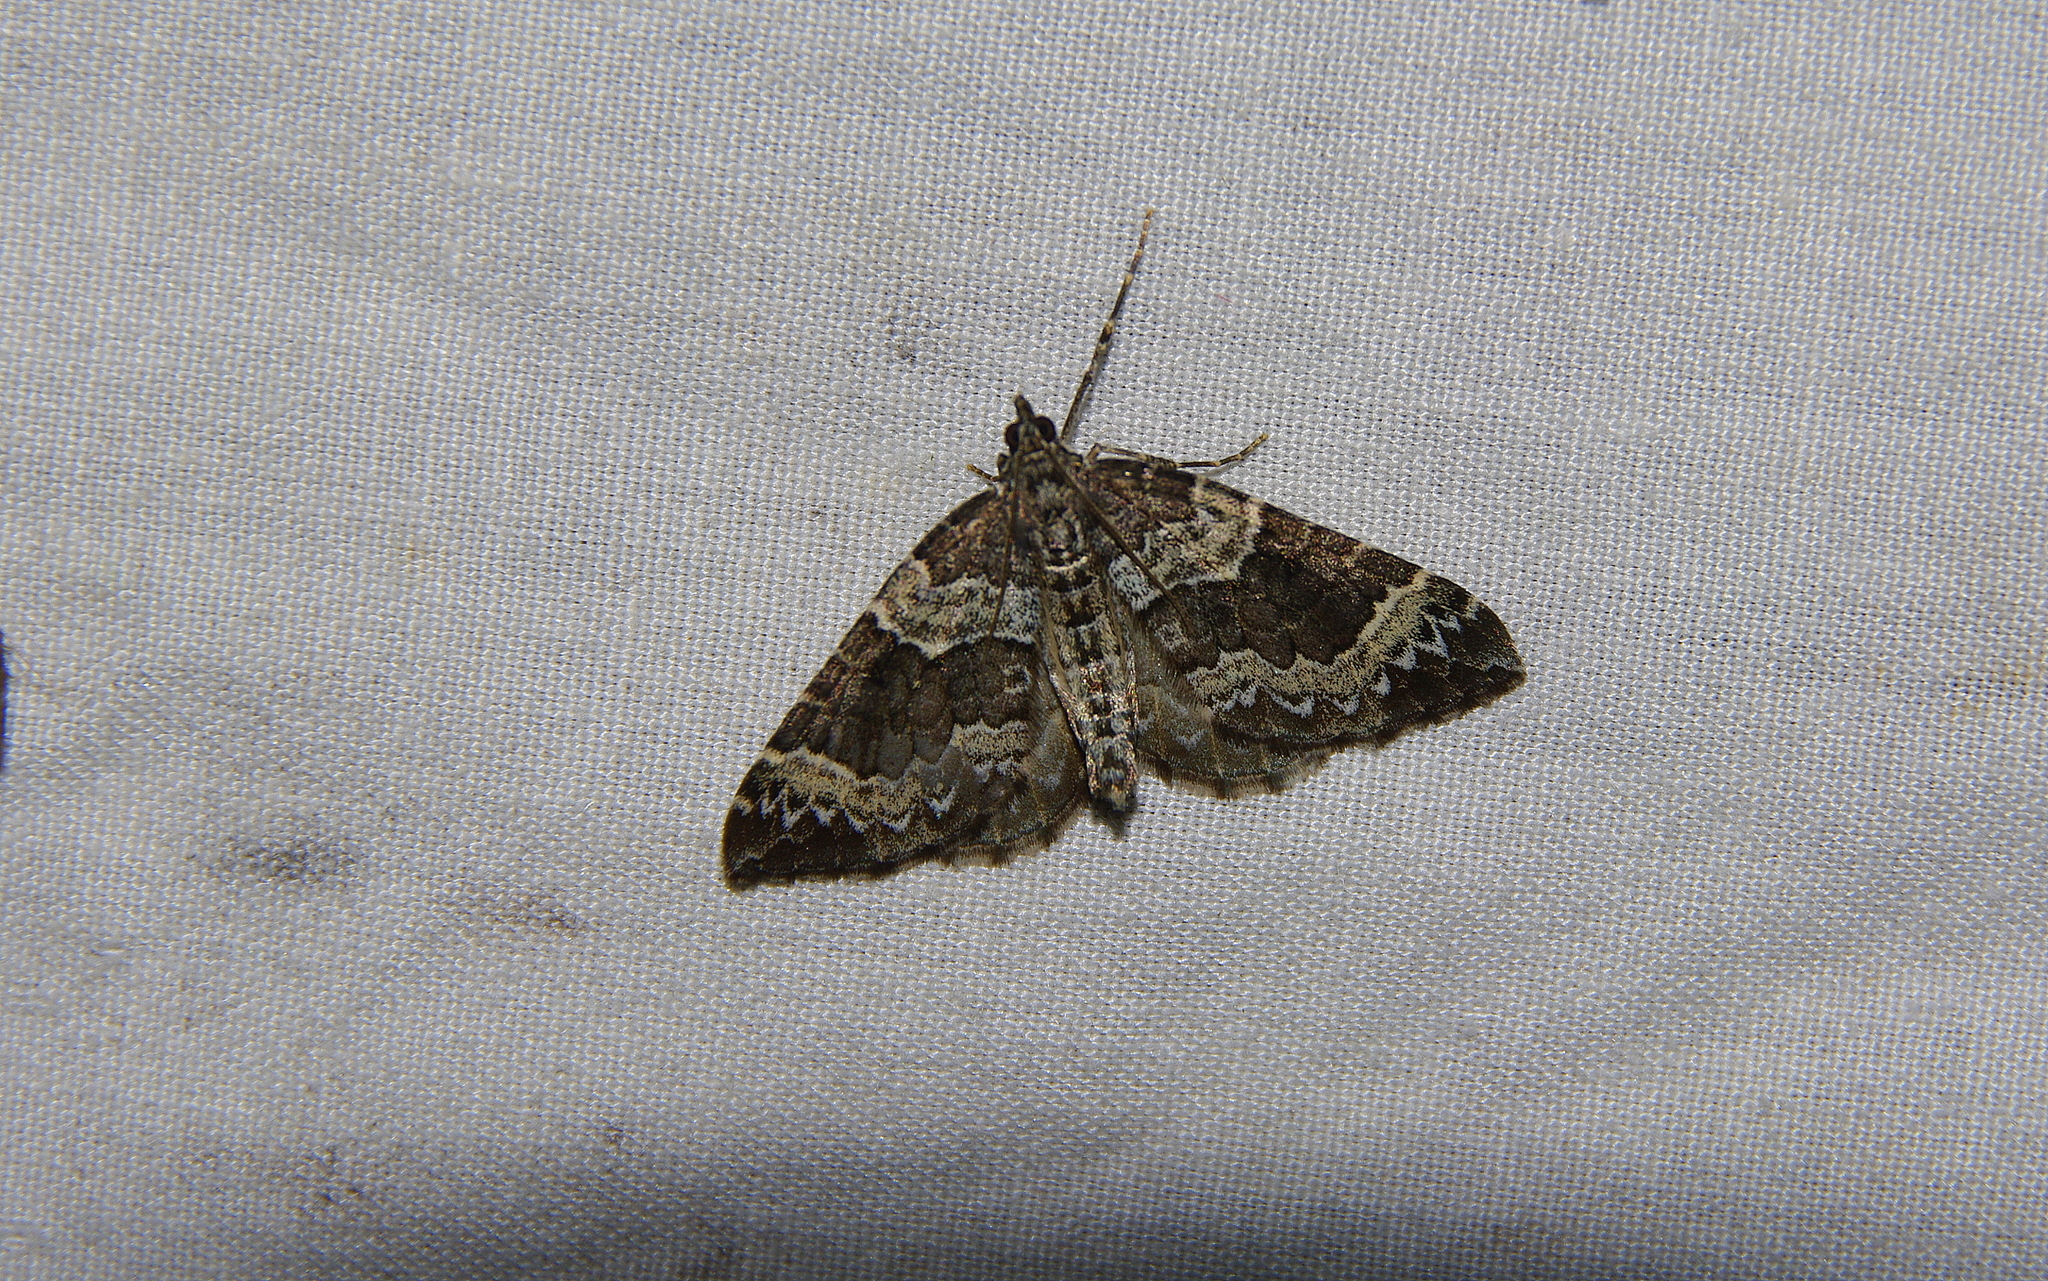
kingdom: Animalia
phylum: Arthropoda
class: Insecta
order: Lepidoptera
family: Geometridae
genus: Eulithis
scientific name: Eulithis xylina
